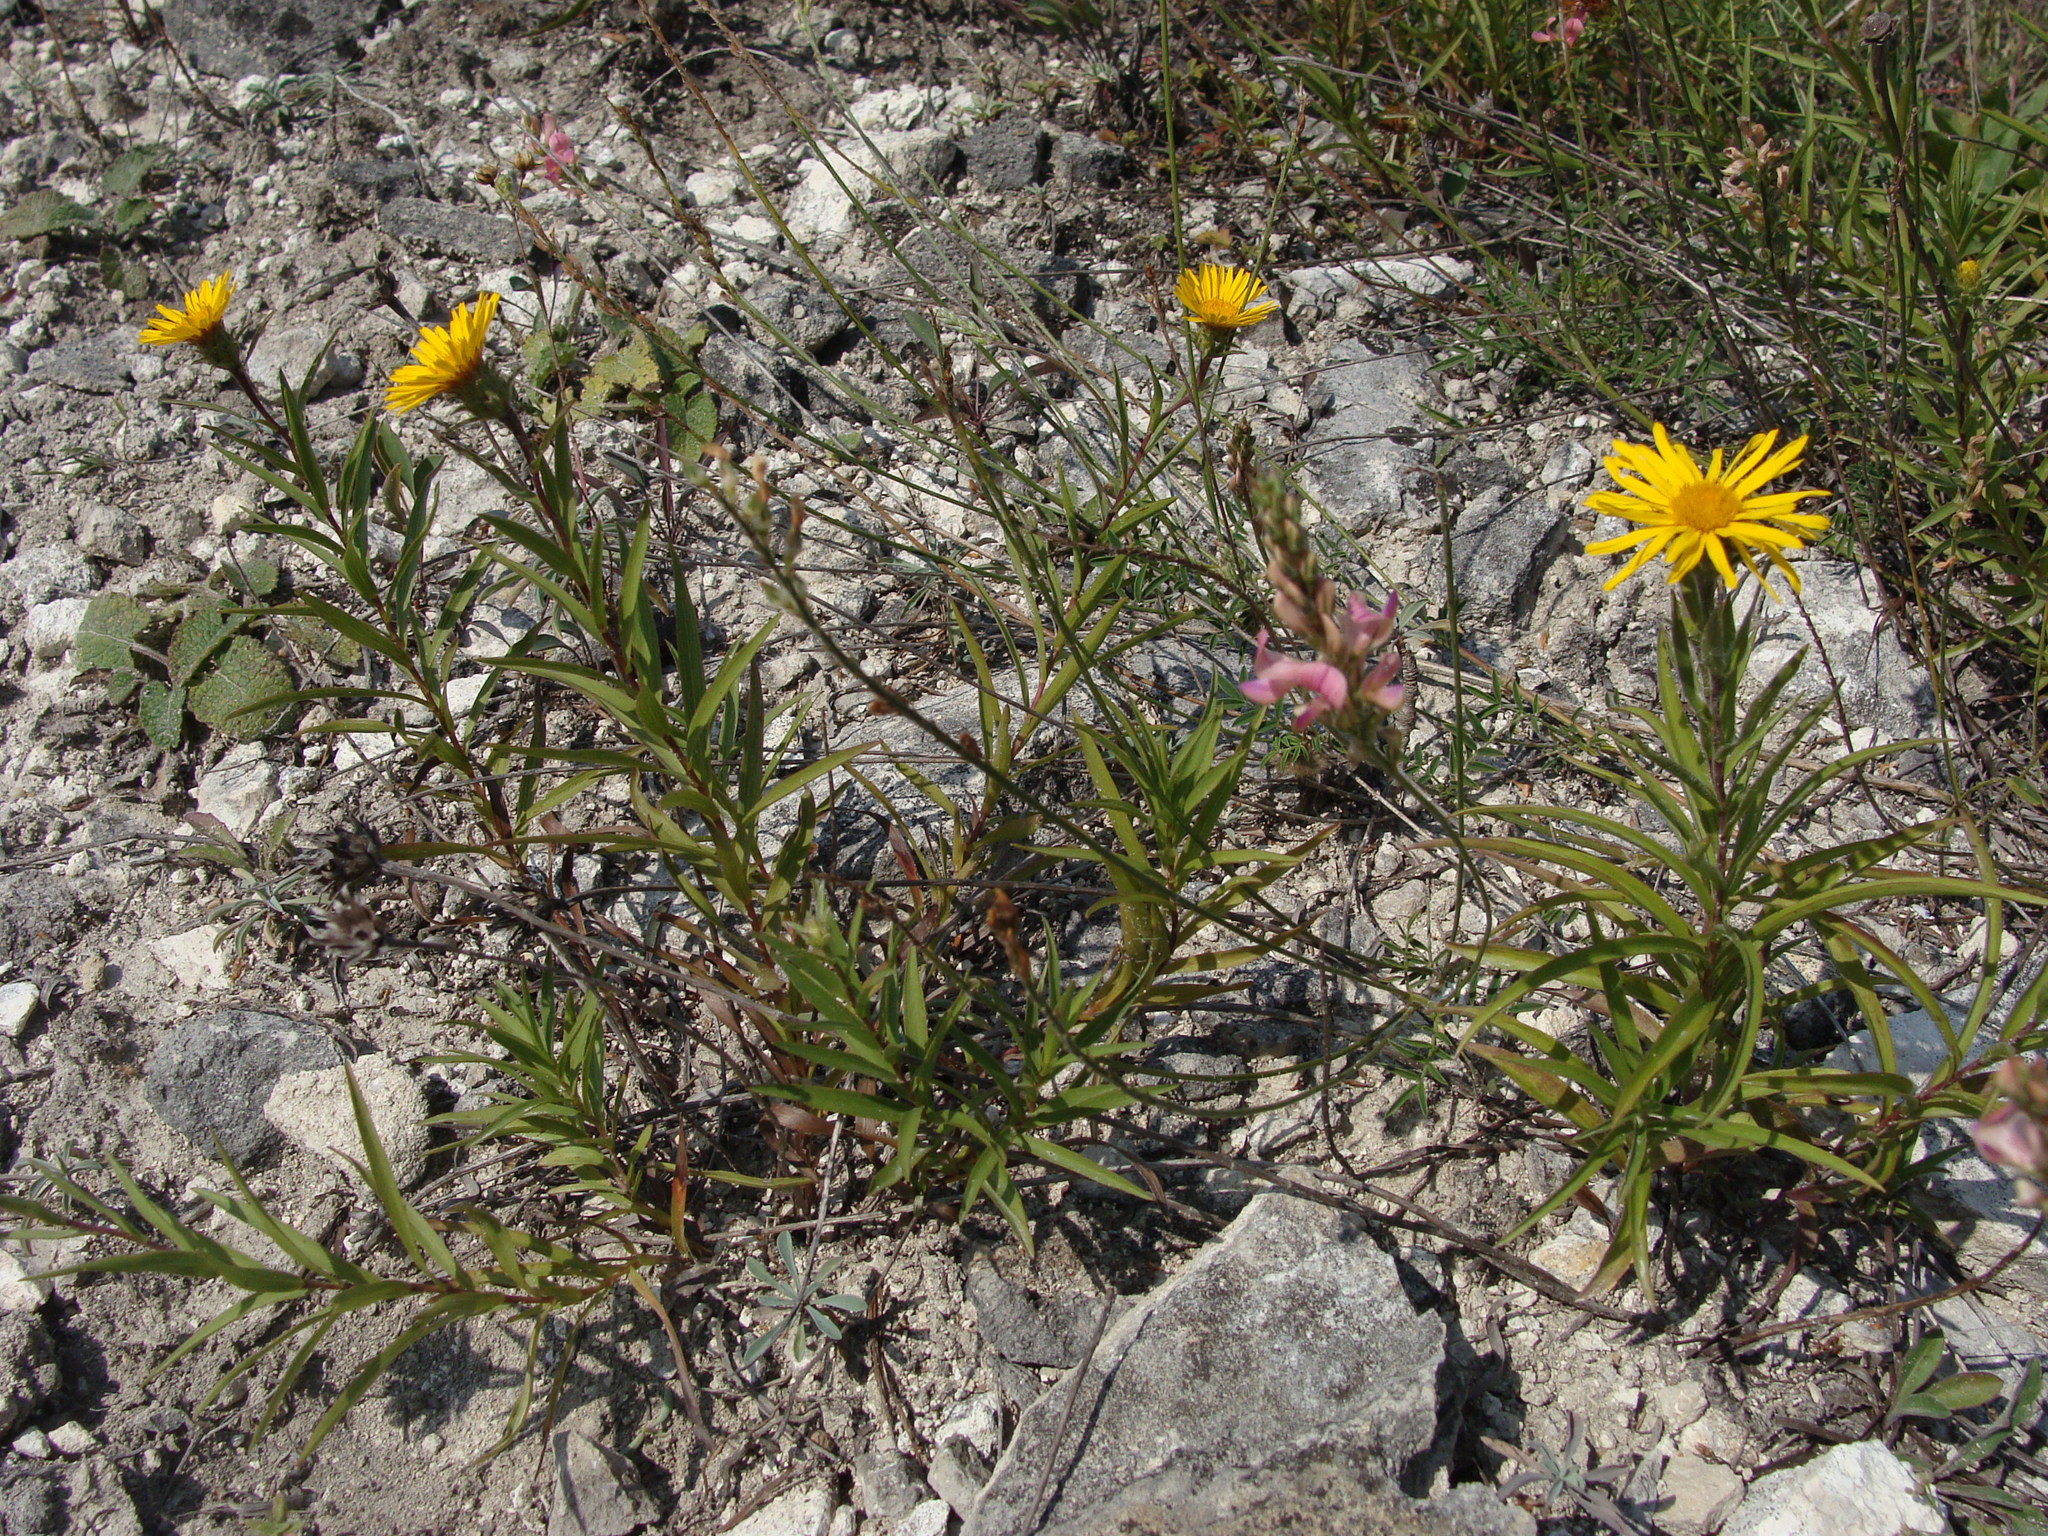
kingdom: Plantae
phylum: Tracheophyta
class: Magnoliopsida
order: Asterales
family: Asteraceae
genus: Pentanema
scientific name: Pentanema ensifolium
